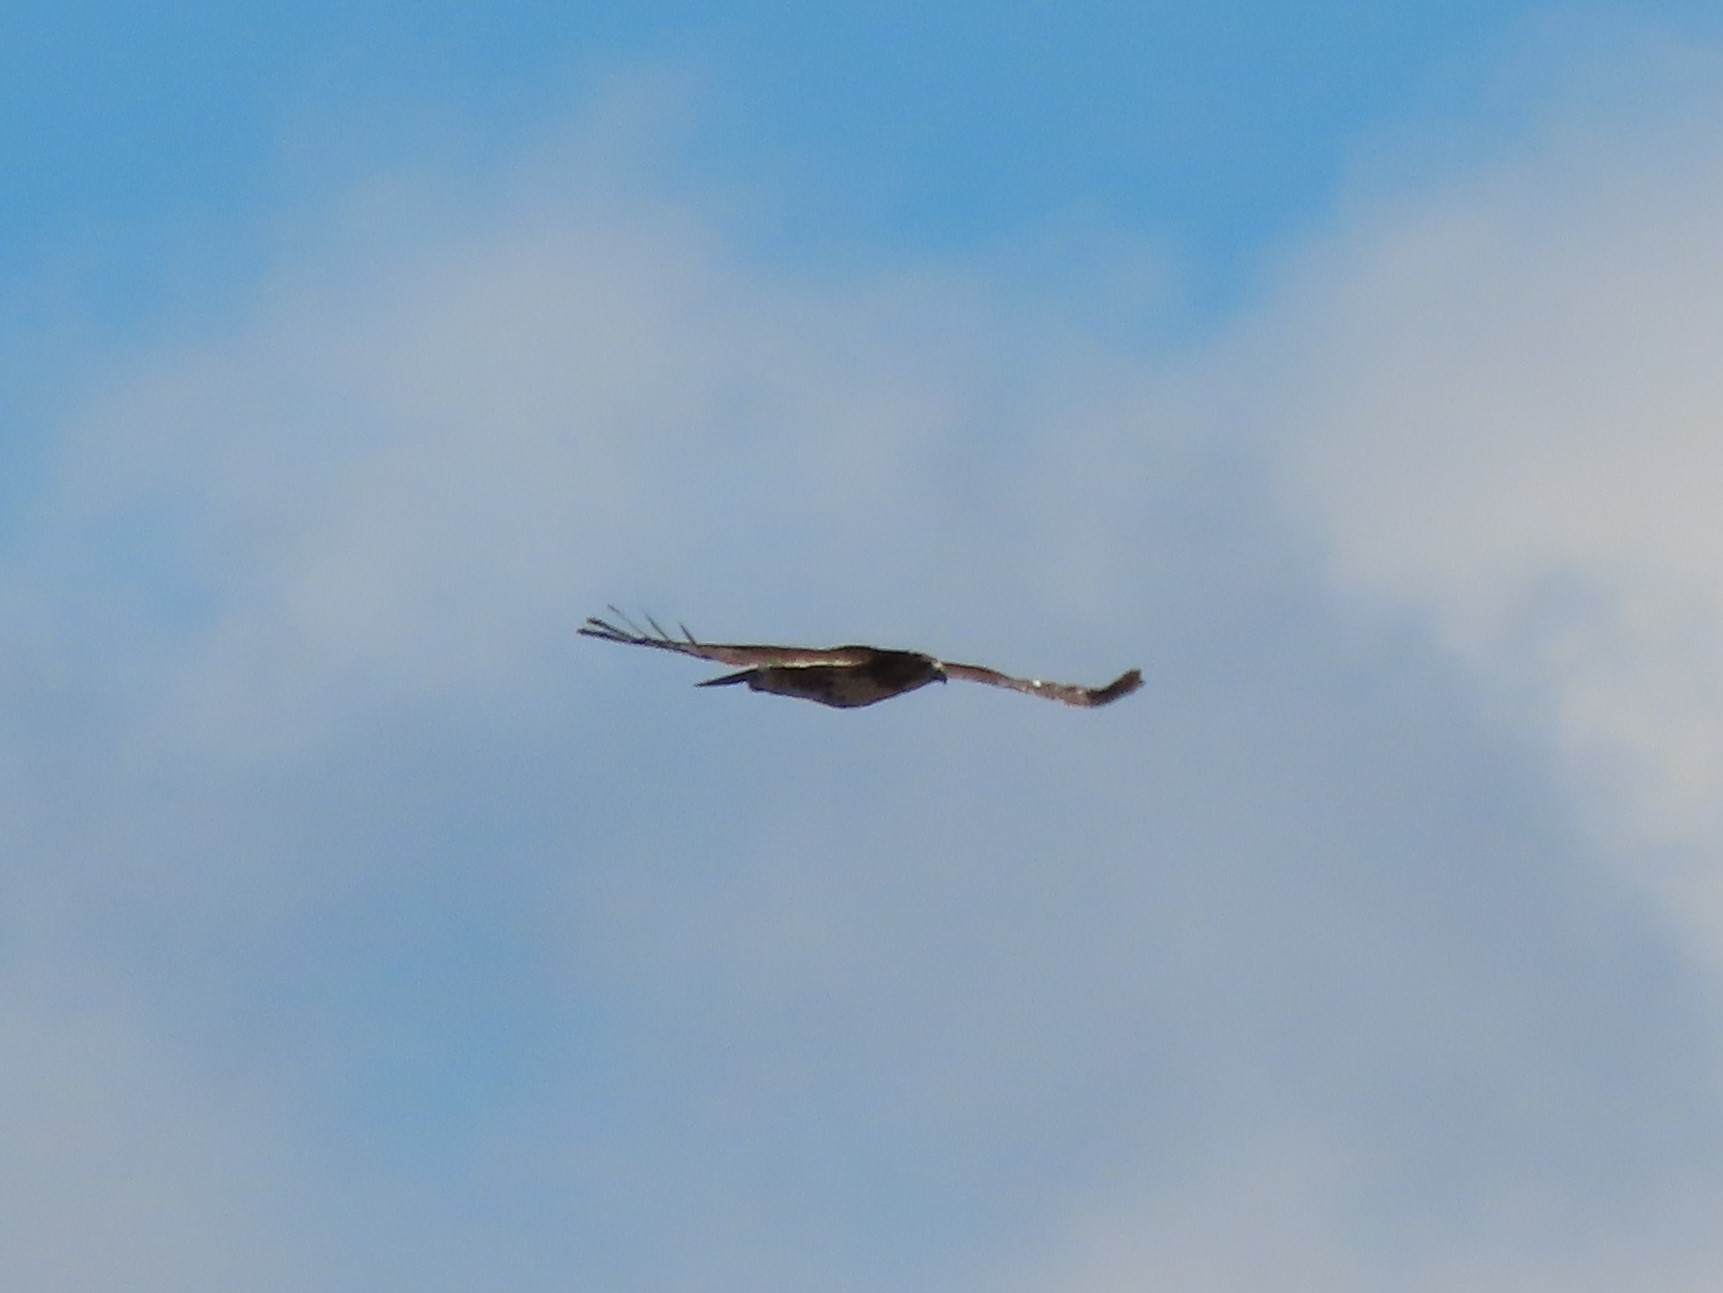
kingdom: Animalia
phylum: Chordata
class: Aves
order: Accipitriformes
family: Accipitridae
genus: Buteo
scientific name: Buteo jamaicensis
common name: Red-tailed hawk
